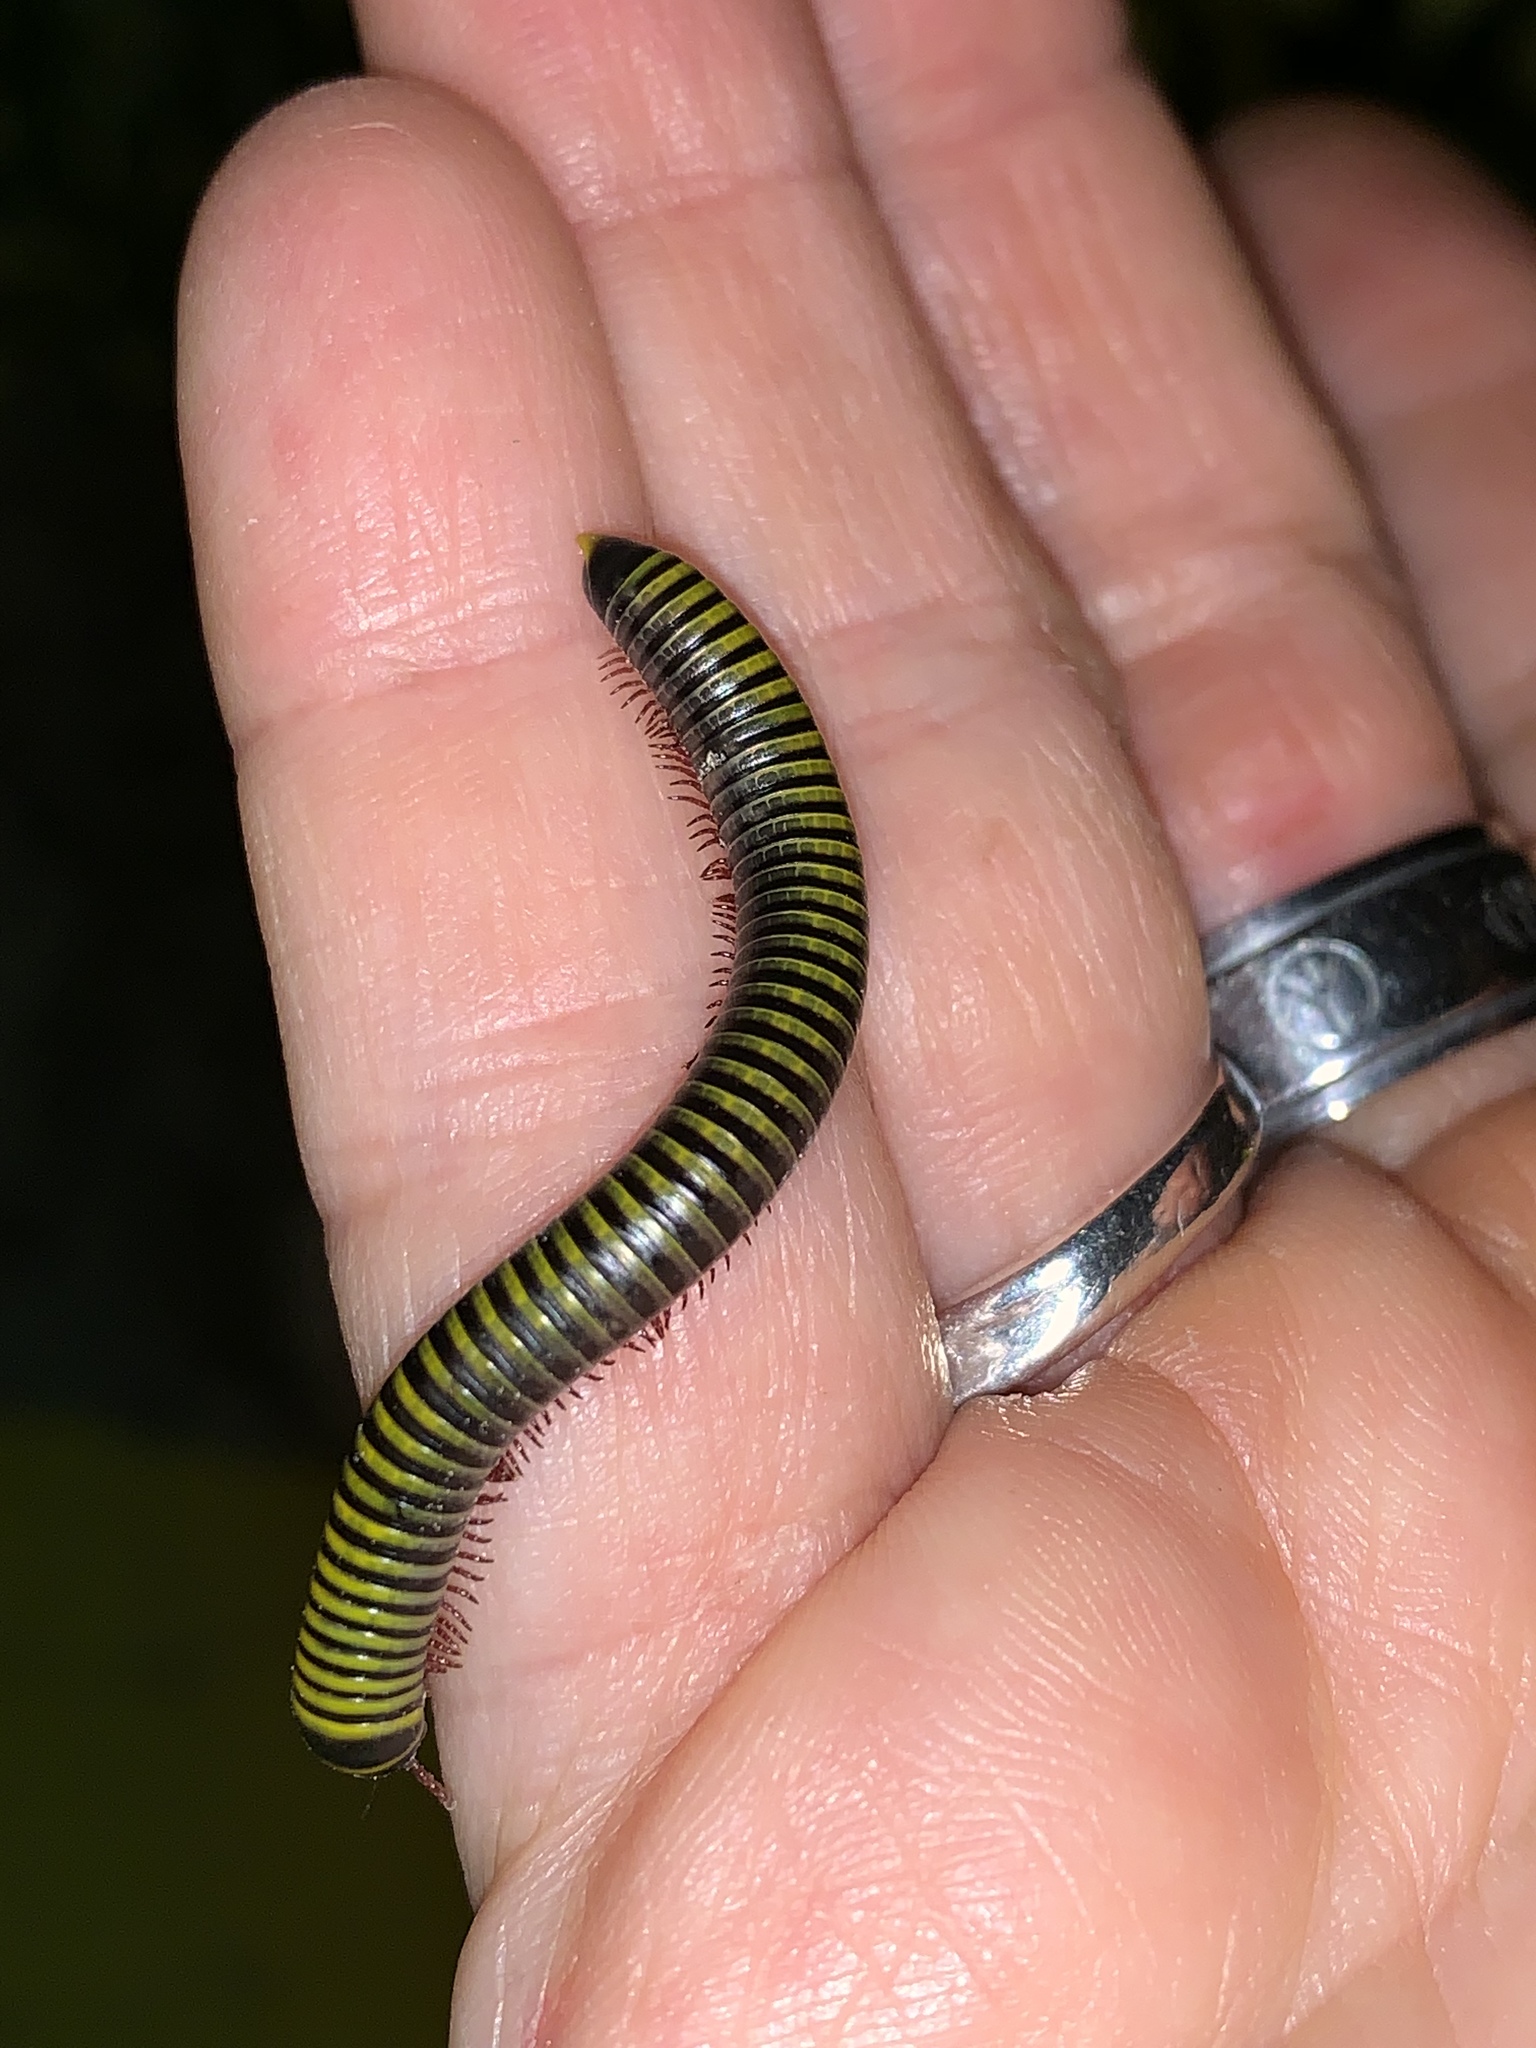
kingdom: Animalia
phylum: Arthropoda
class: Diplopoda
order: Spirobolida
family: Rhinocricidae
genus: Anadenobolus
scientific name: Anadenobolus monilicornis
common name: Caribbean millipede
